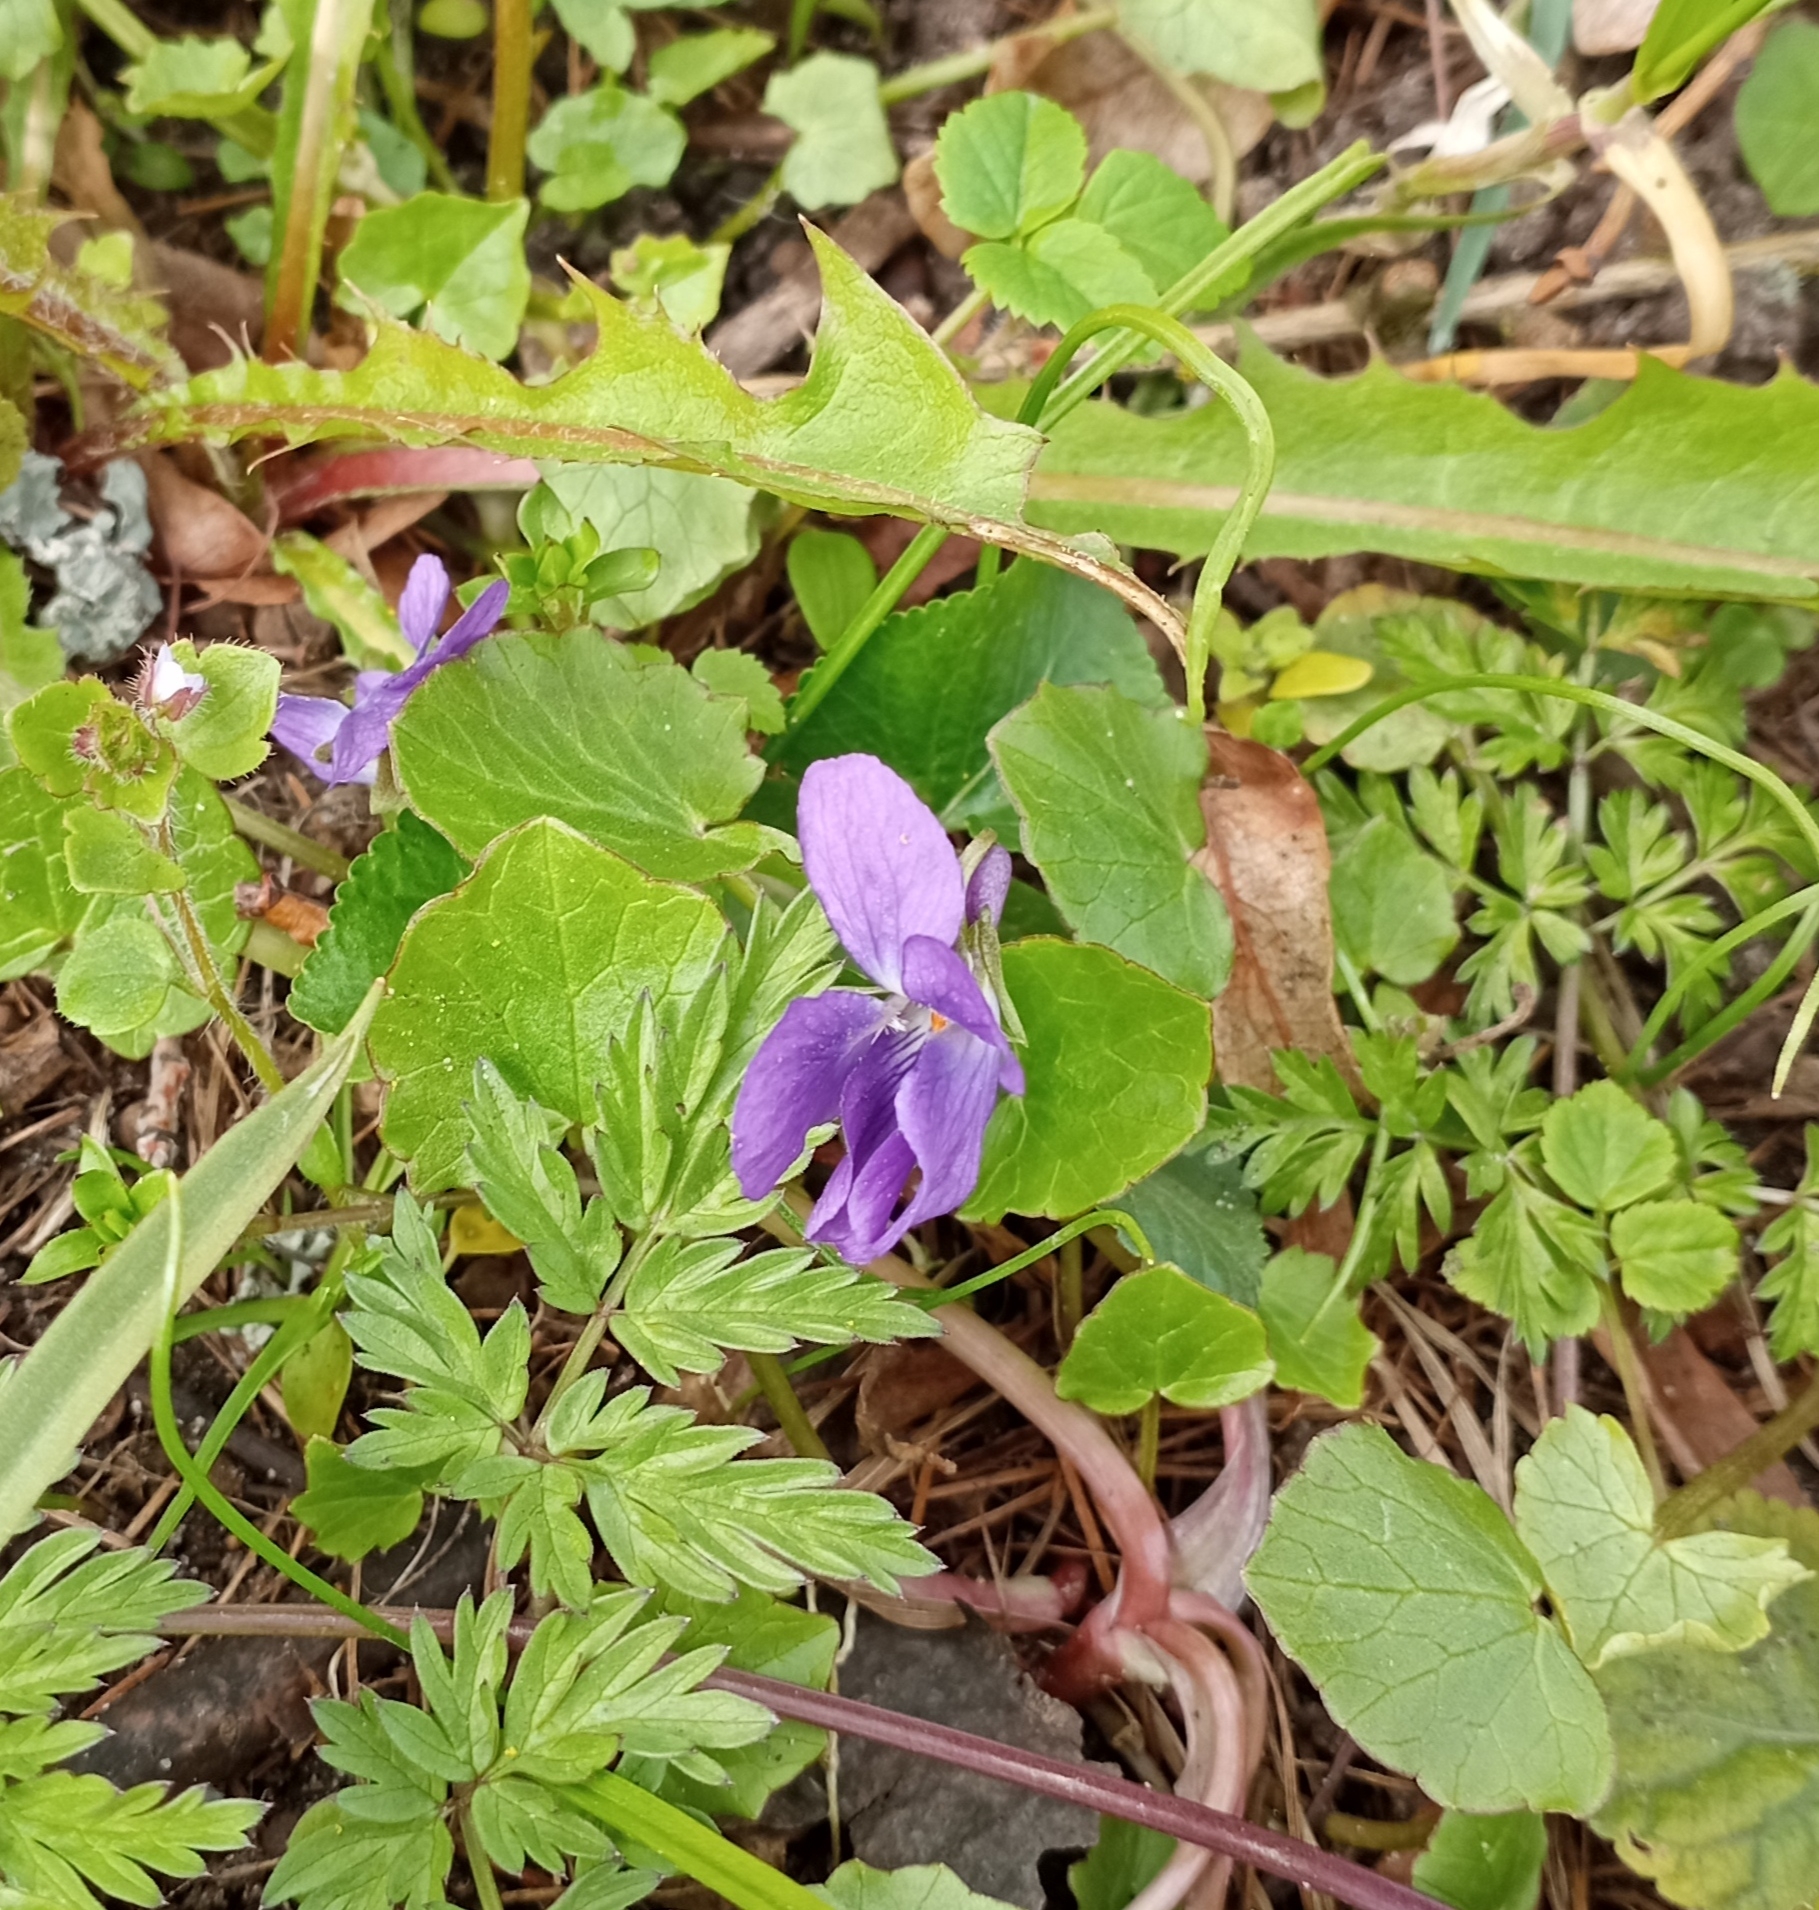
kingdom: Plantae
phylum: Tracheophyta
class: Magnoliopsida
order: Malpighiales
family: Violaceae
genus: Viola
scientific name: Viola odorata
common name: Sweet violet
